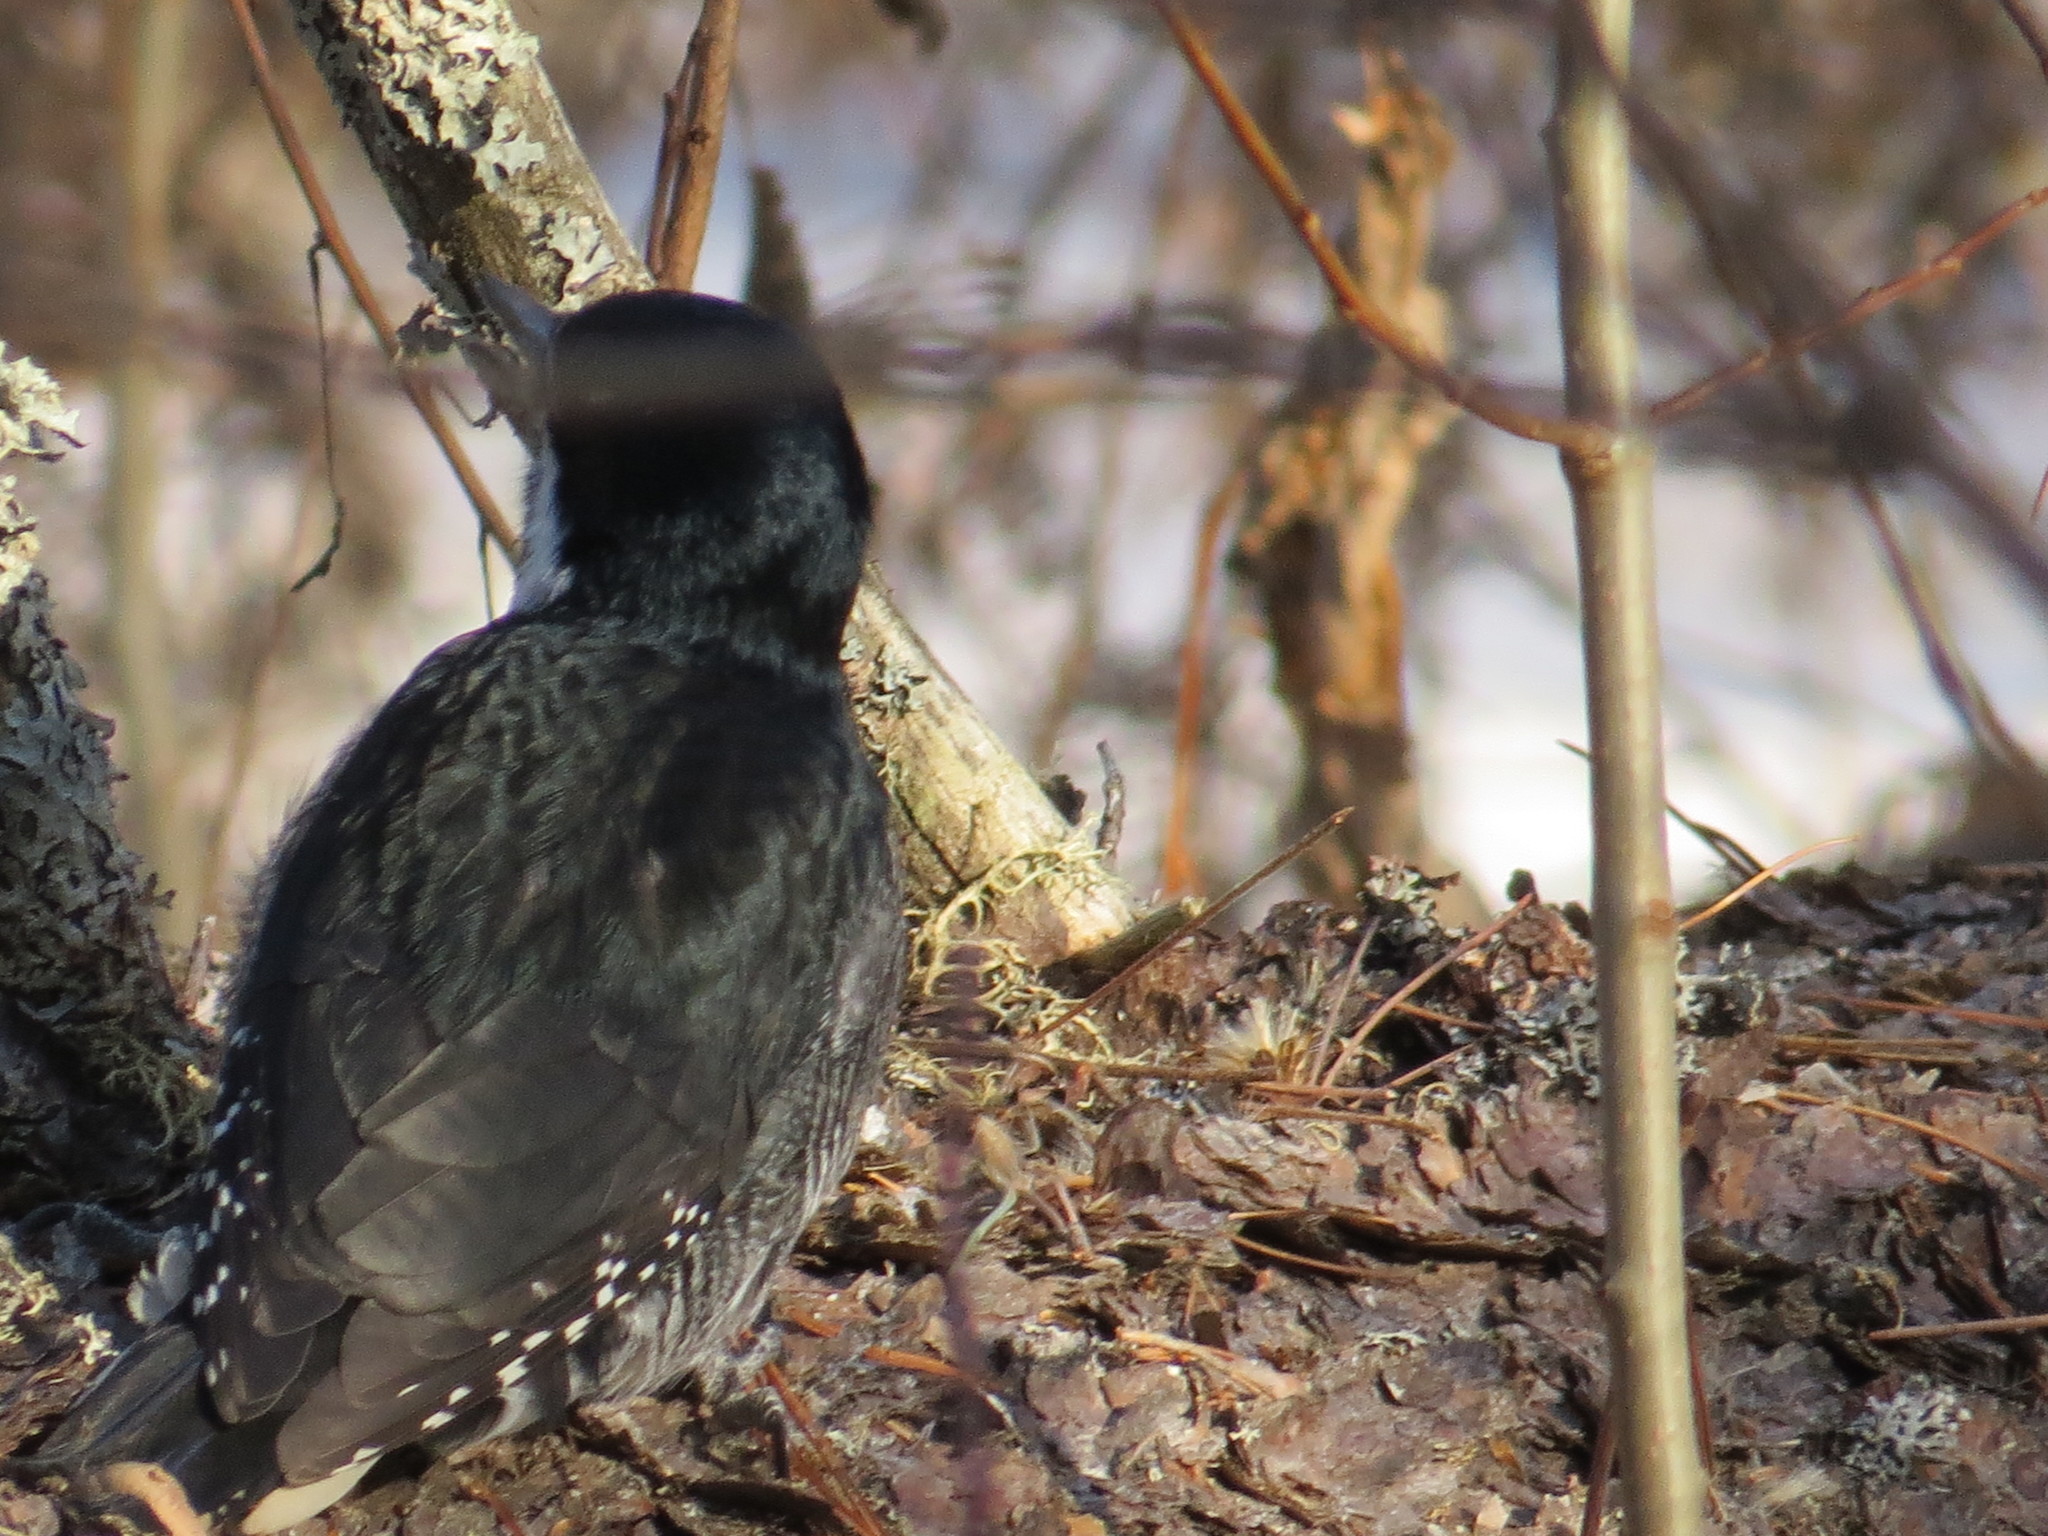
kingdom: Animalia
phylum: Chordata
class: Aves
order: Piciformes
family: Picidae
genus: Picoides
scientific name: Picoides arcticus
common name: Black-backed woodpecker
